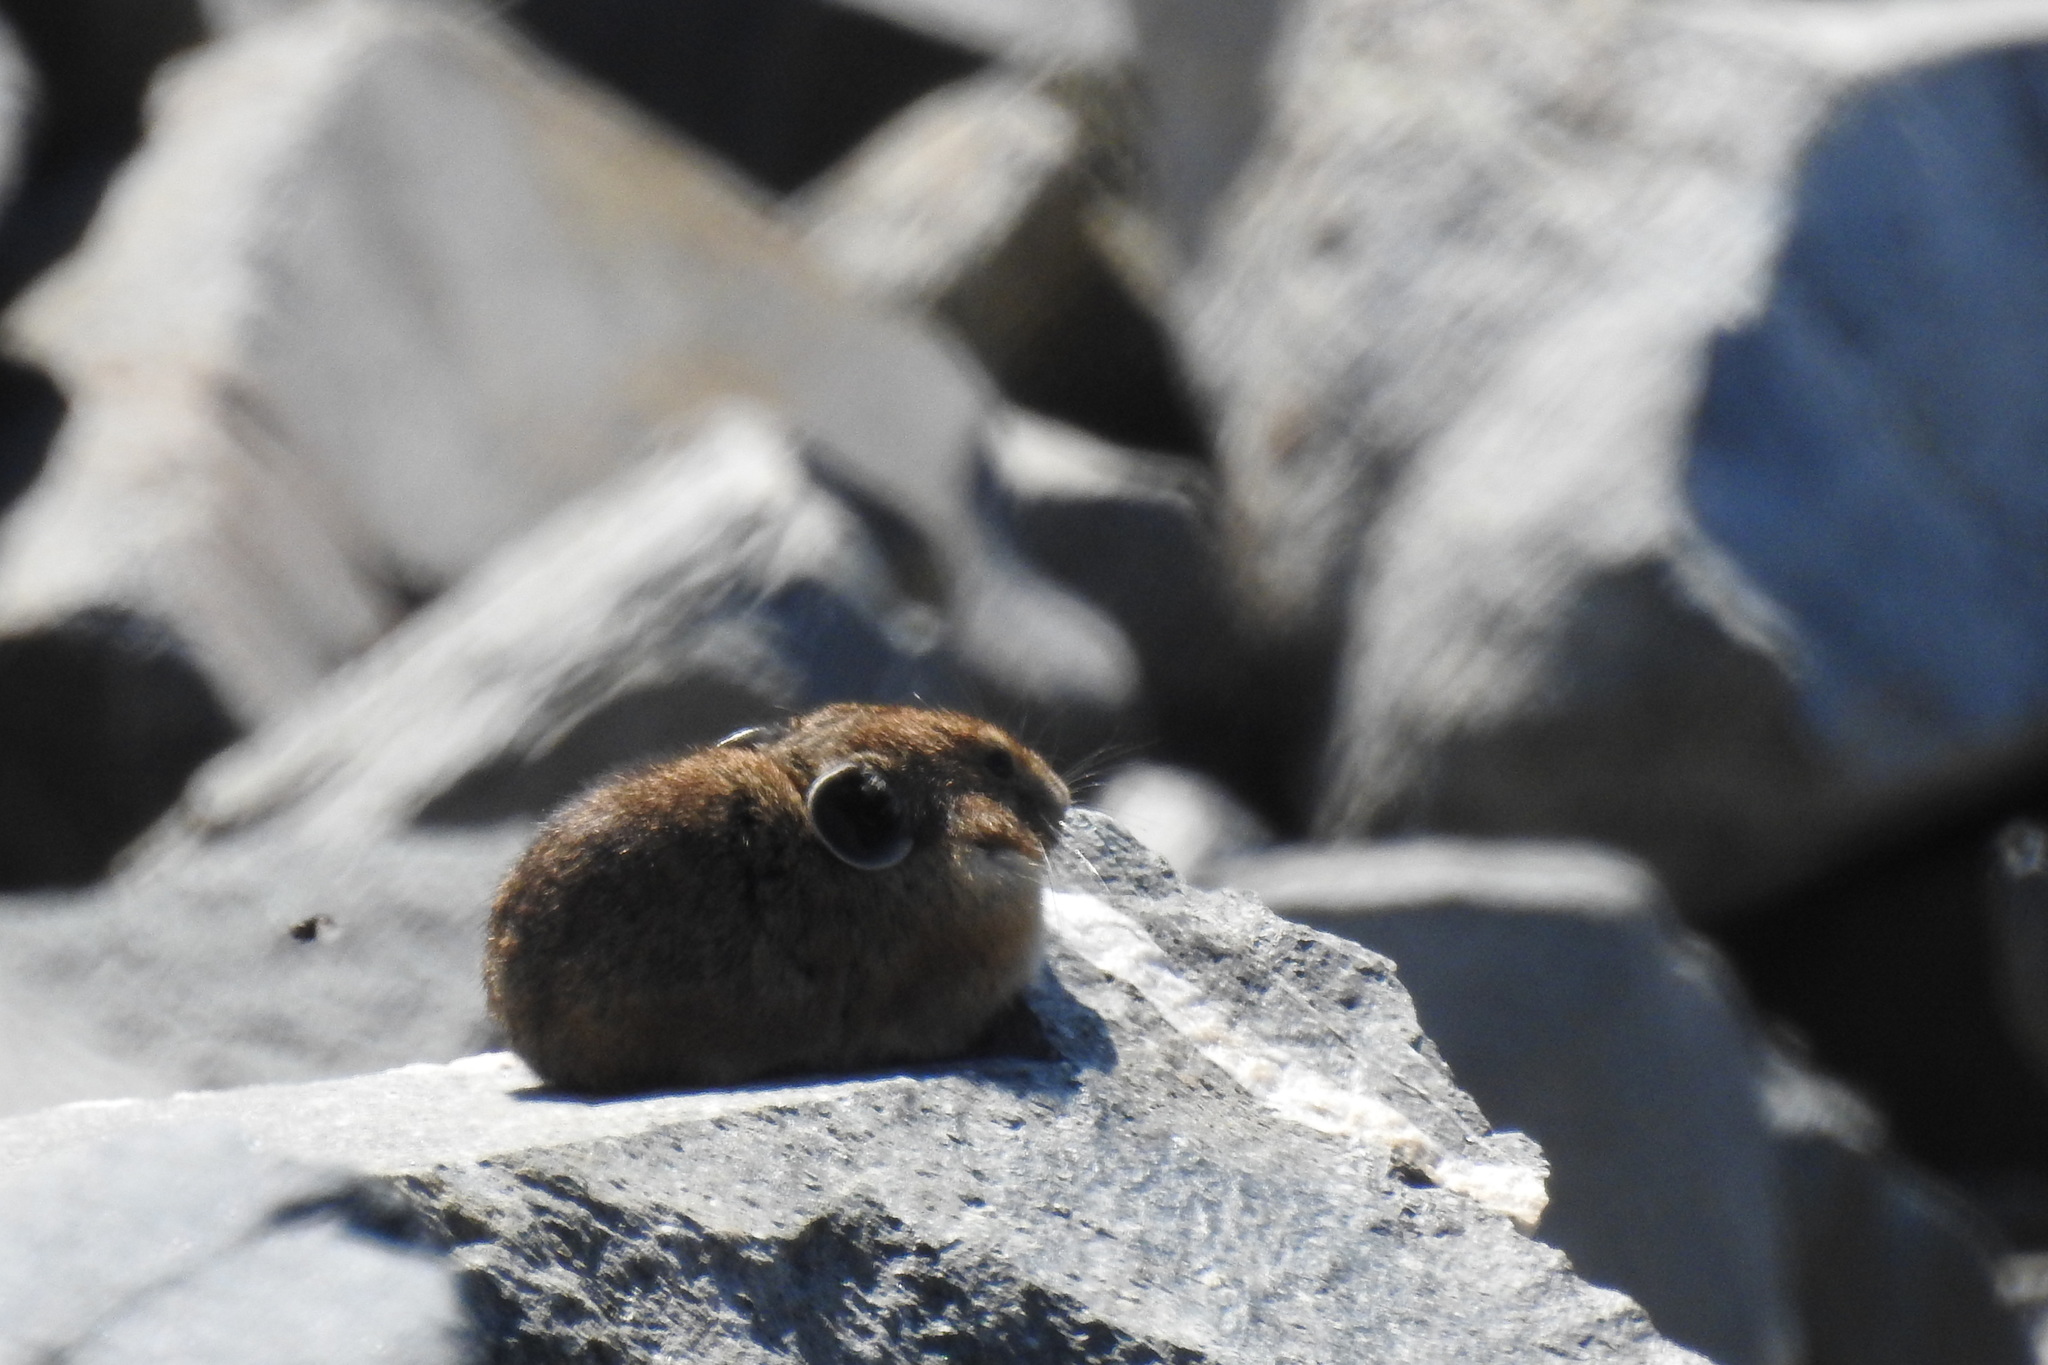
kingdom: Animalia
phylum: Chordata
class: Mammalia
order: Lagomorpha
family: Ochotonidae
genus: Ochotona
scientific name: Ochotona princeps
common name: American pika
